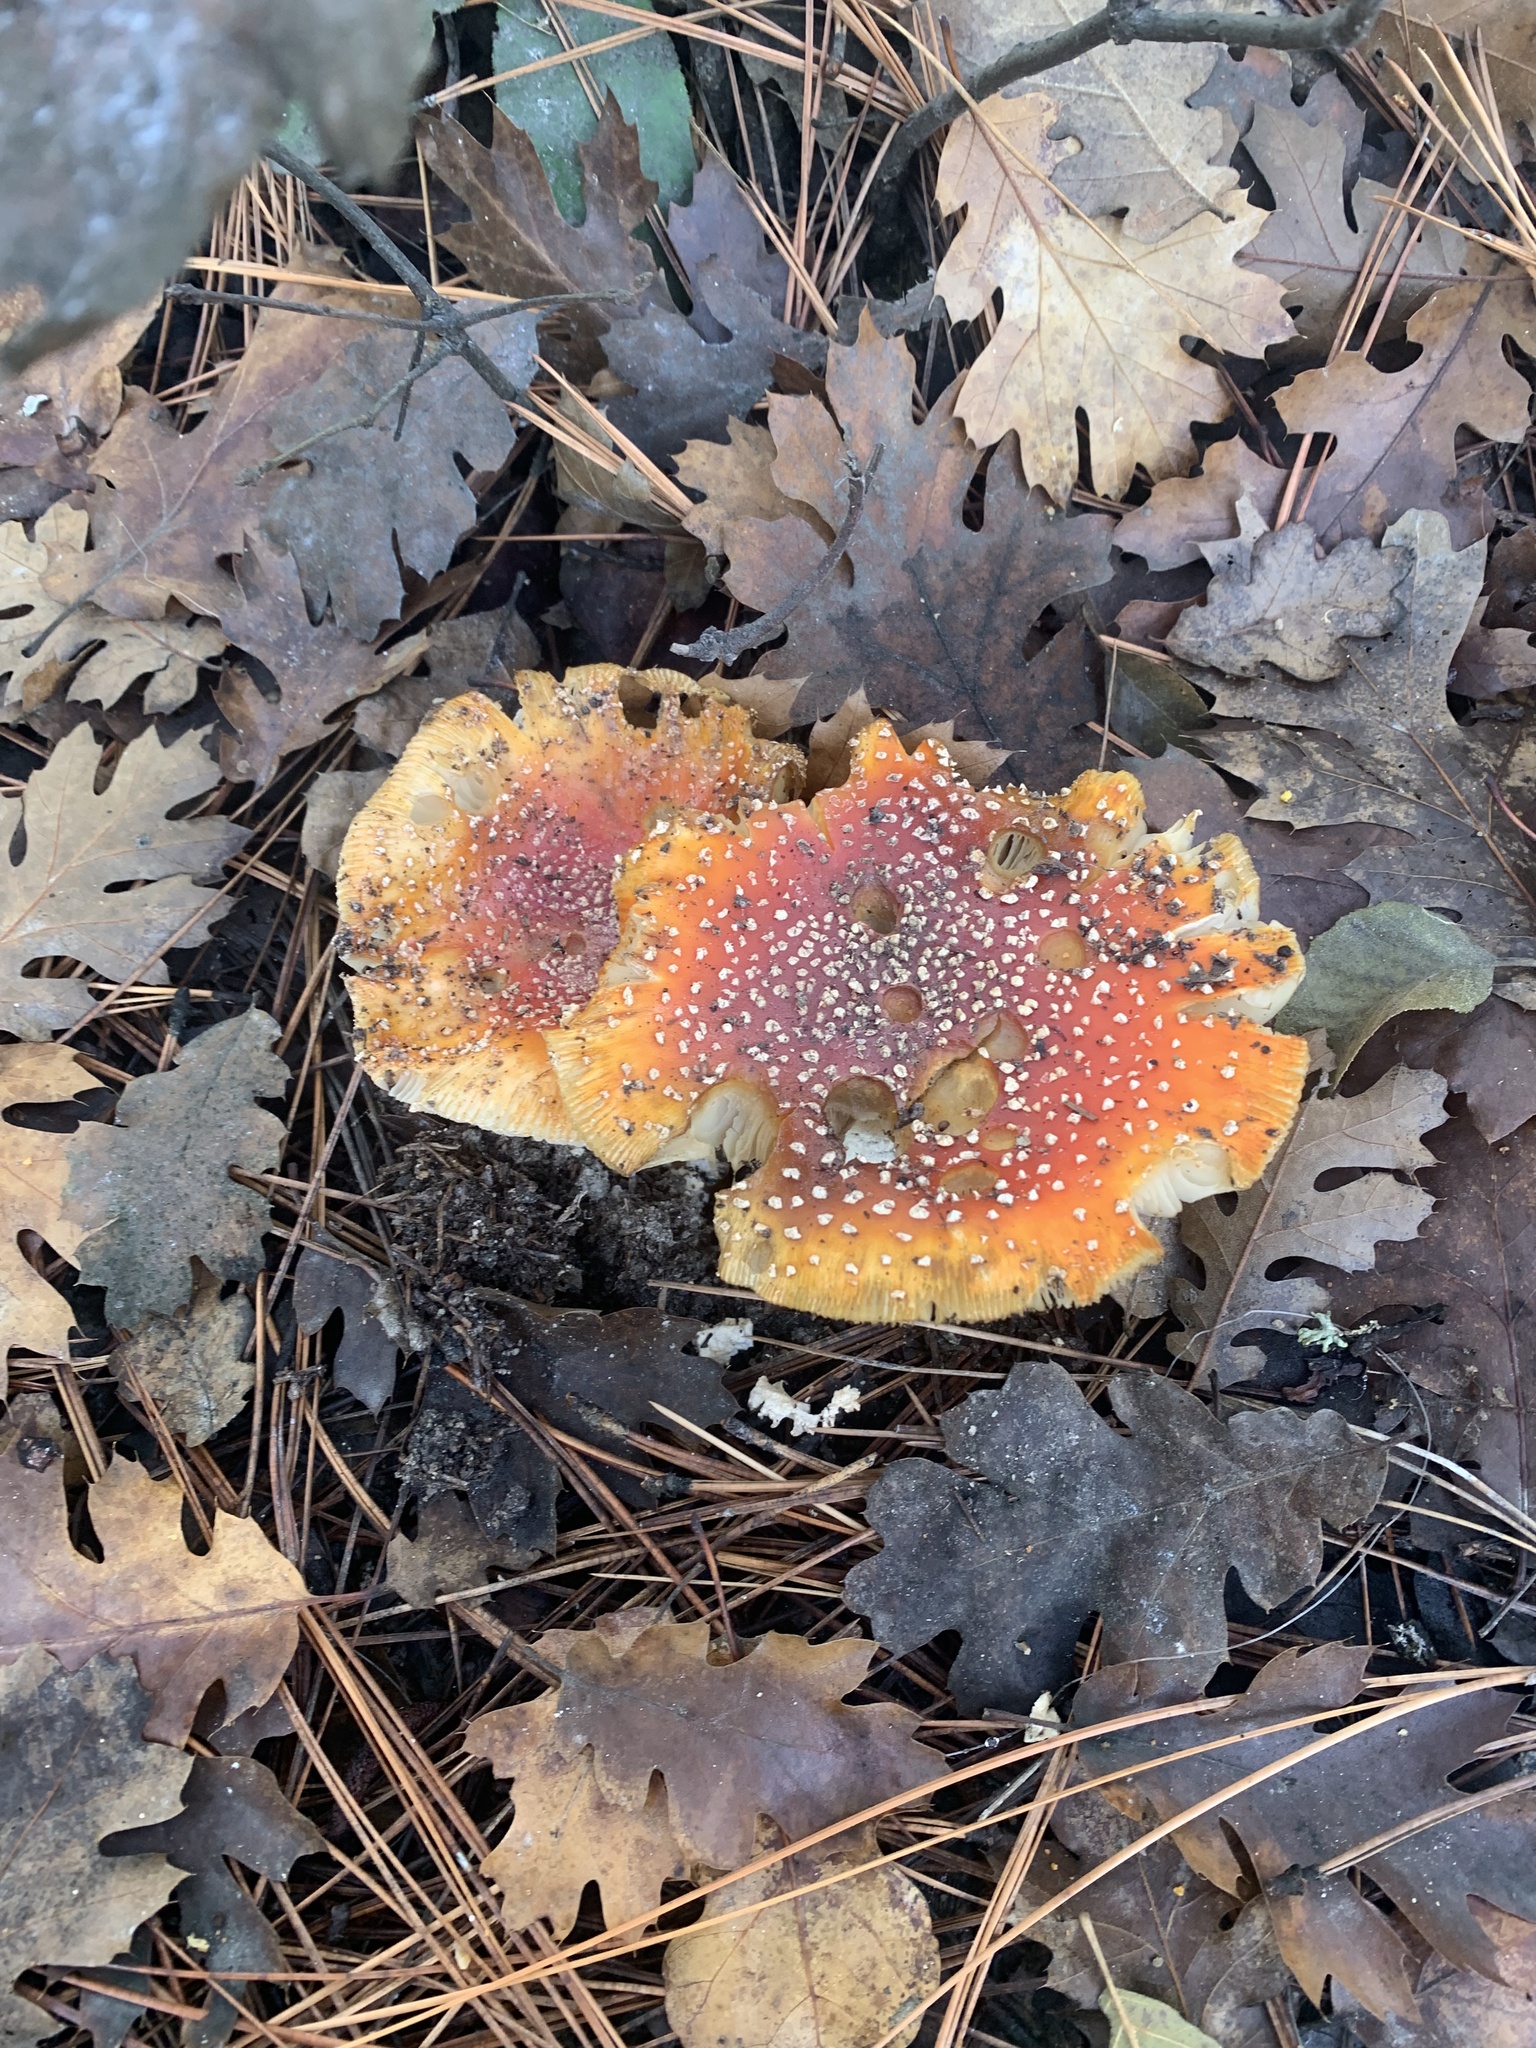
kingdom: Fungi
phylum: Basidiomycota
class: Agaricomycetes
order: Agaricales
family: Amanitaceae
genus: Amanita
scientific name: Amanita muscaria
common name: Fly agaric
